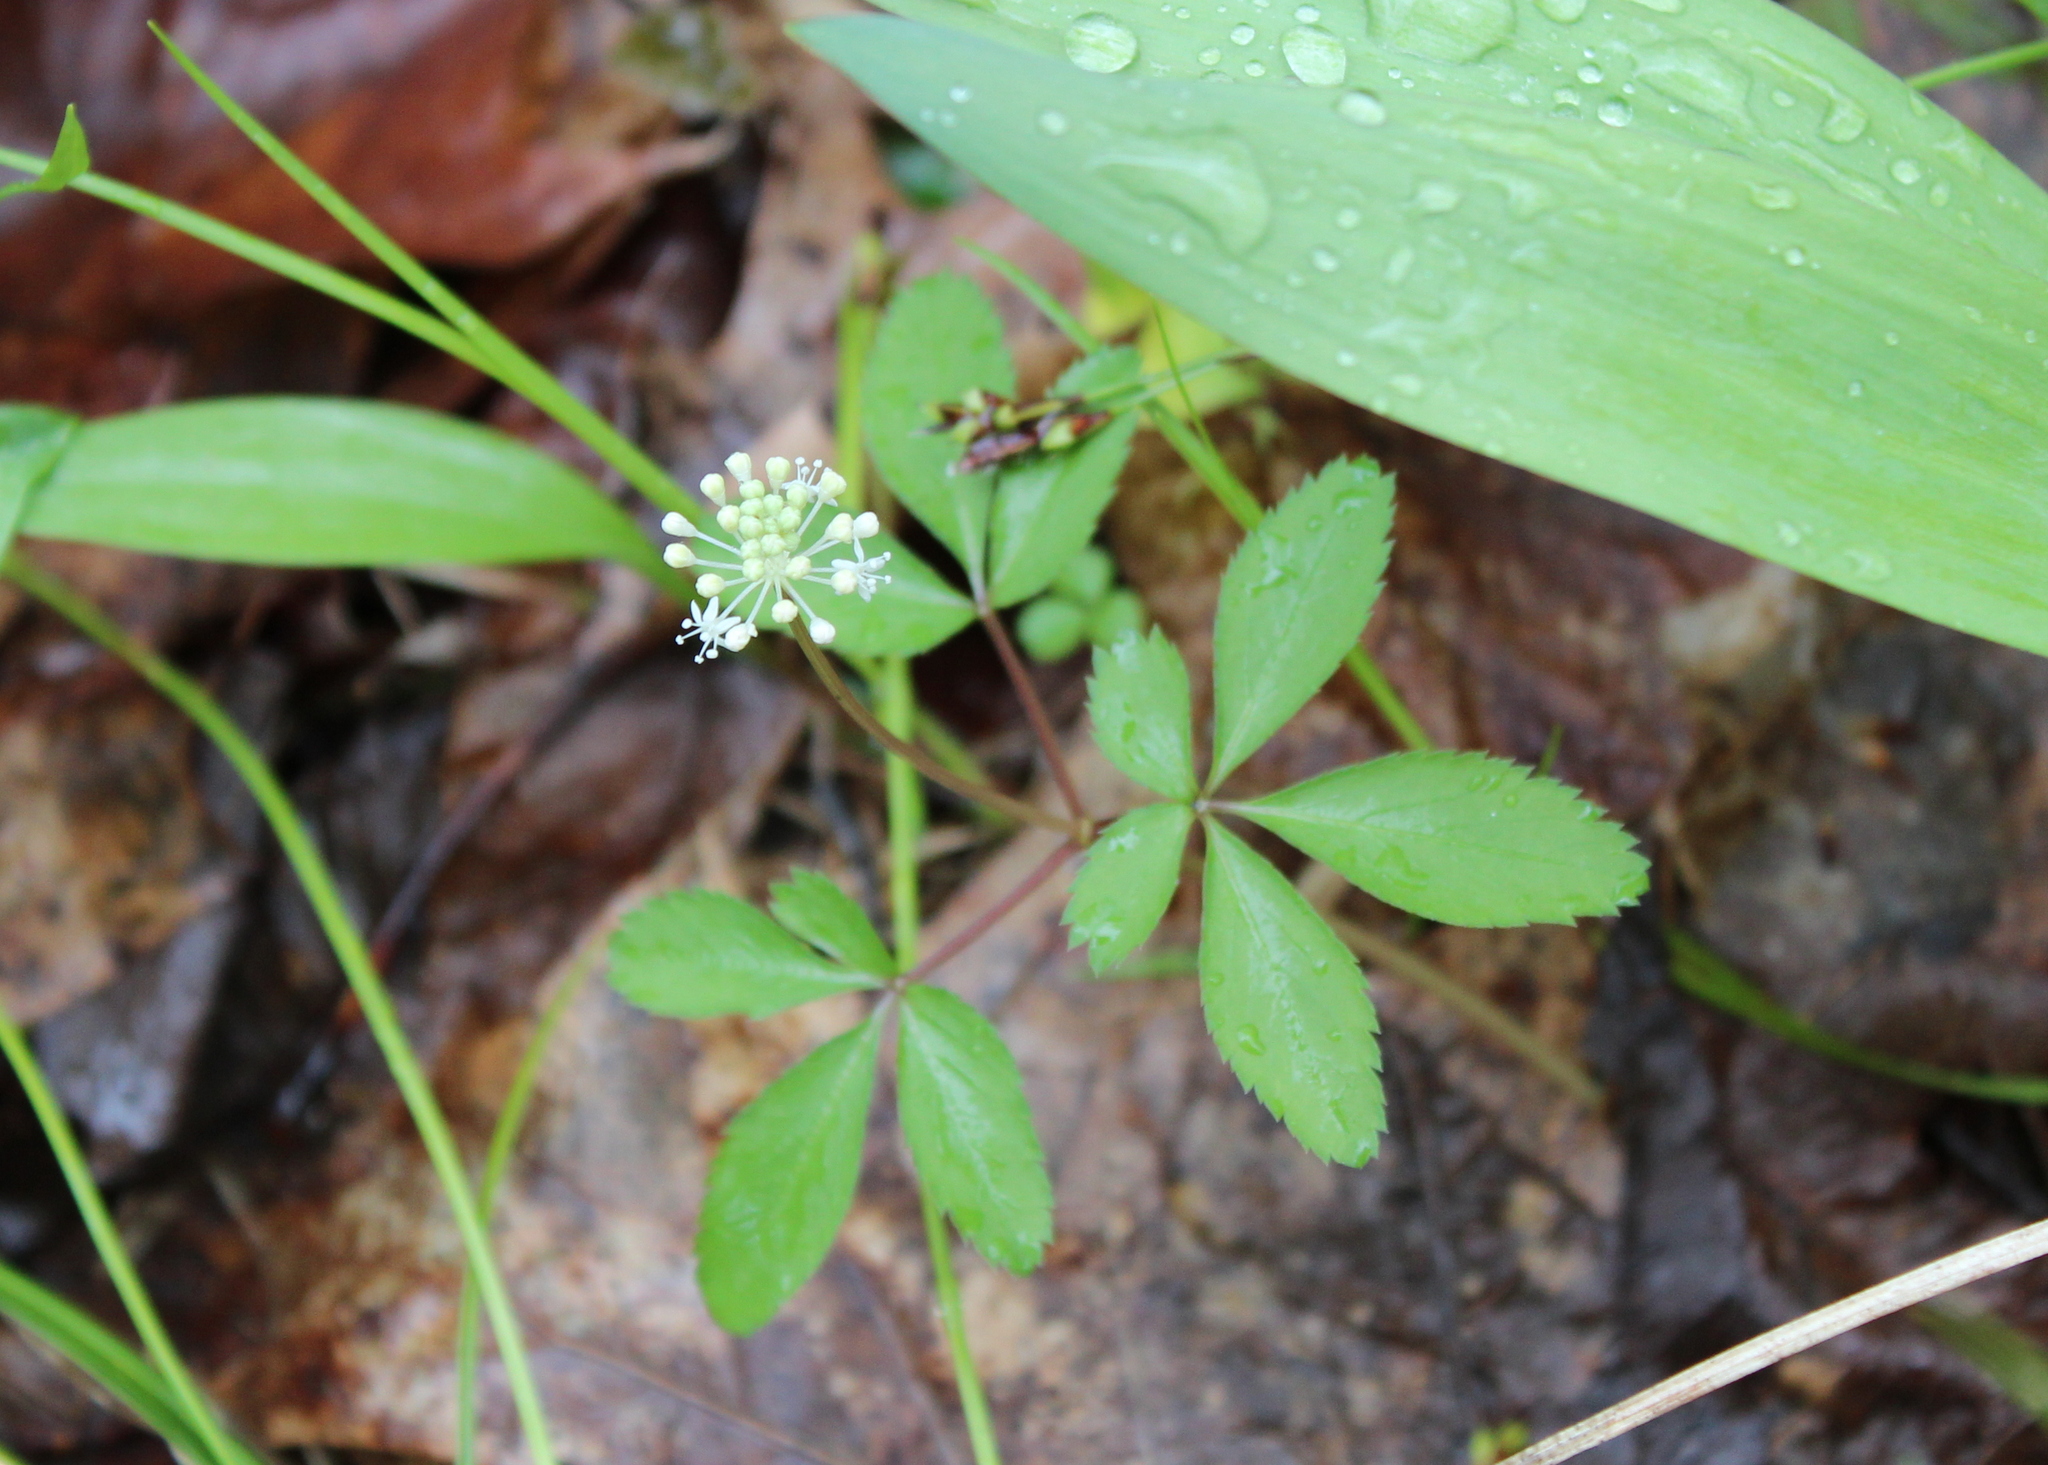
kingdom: Plantae
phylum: Tracheophyta
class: Magnoliopsida
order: Apiales
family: Araliaceae
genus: Panax
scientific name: Panax trifolius
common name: Dwarf ginseng
